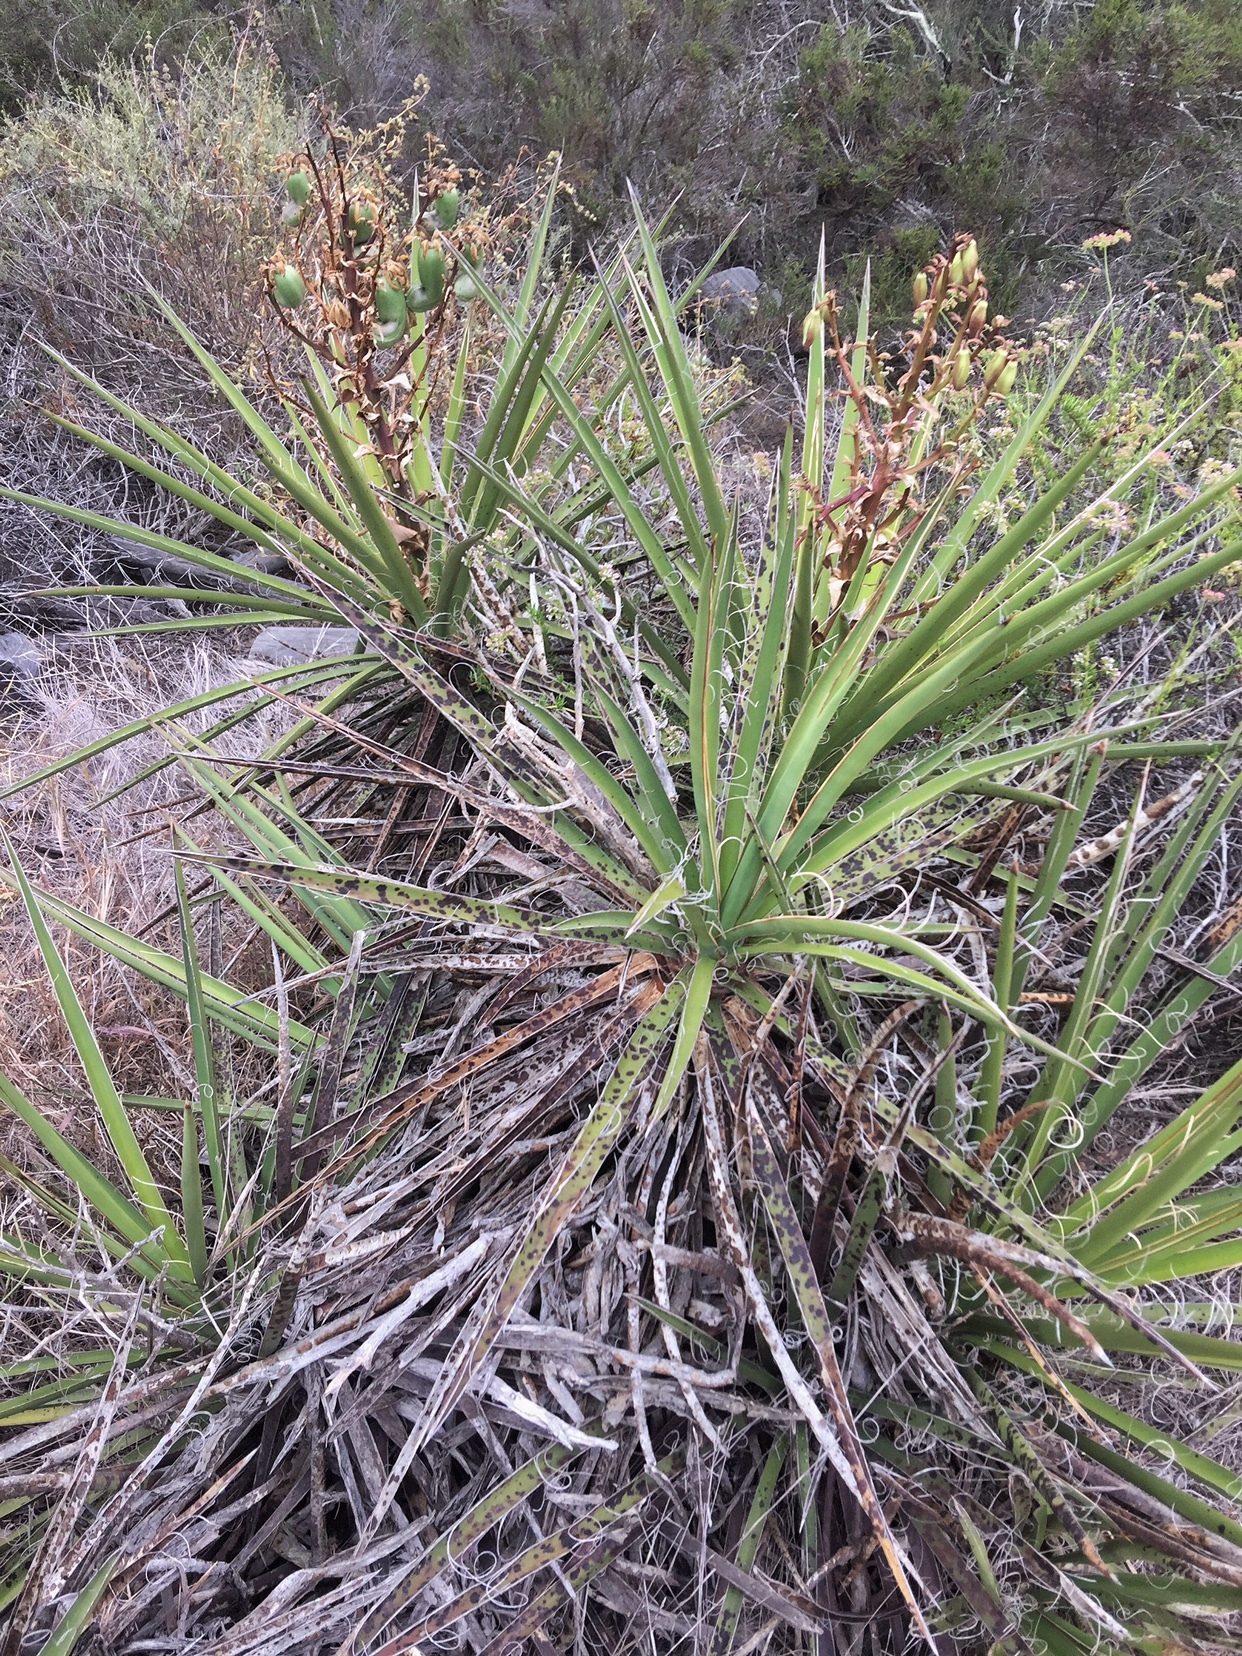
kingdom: Plantae
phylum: Tracheophyta
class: Liliopsida
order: Asparagales
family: Asparagaceae
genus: Yucca
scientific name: Yucca schidigera
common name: Mojave yucca
